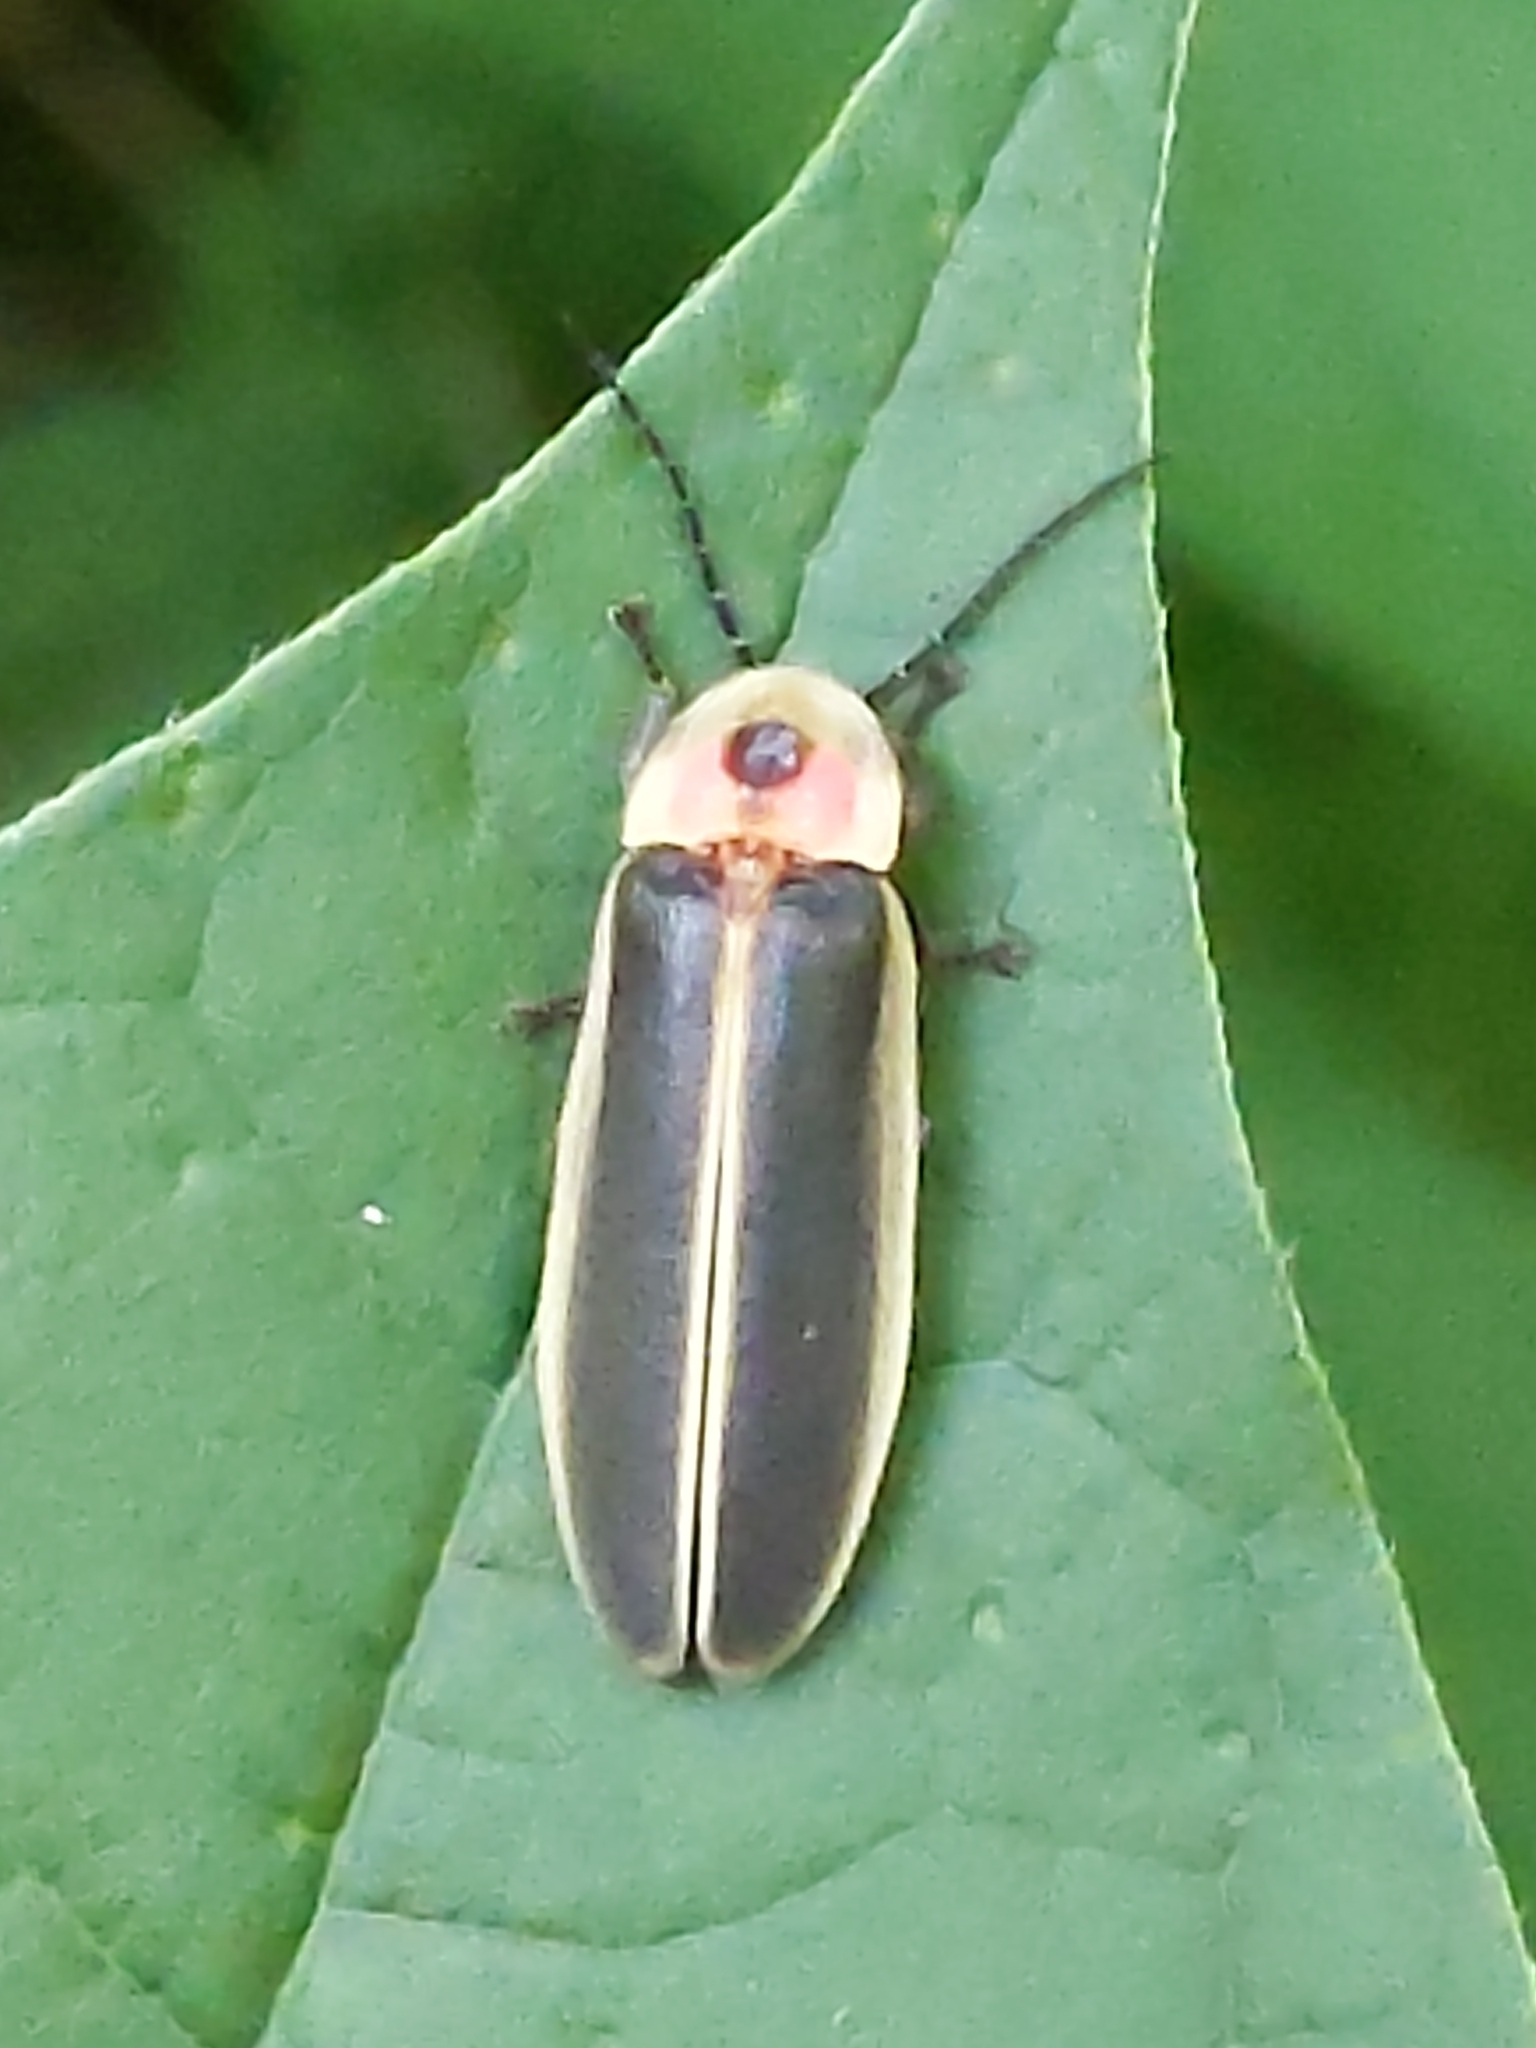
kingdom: Animalia
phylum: Arthropoda
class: Insecta
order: Coleoptera
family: Lampyridae
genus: Photinus
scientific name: Photinus pyralis
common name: Big dipper firefly
